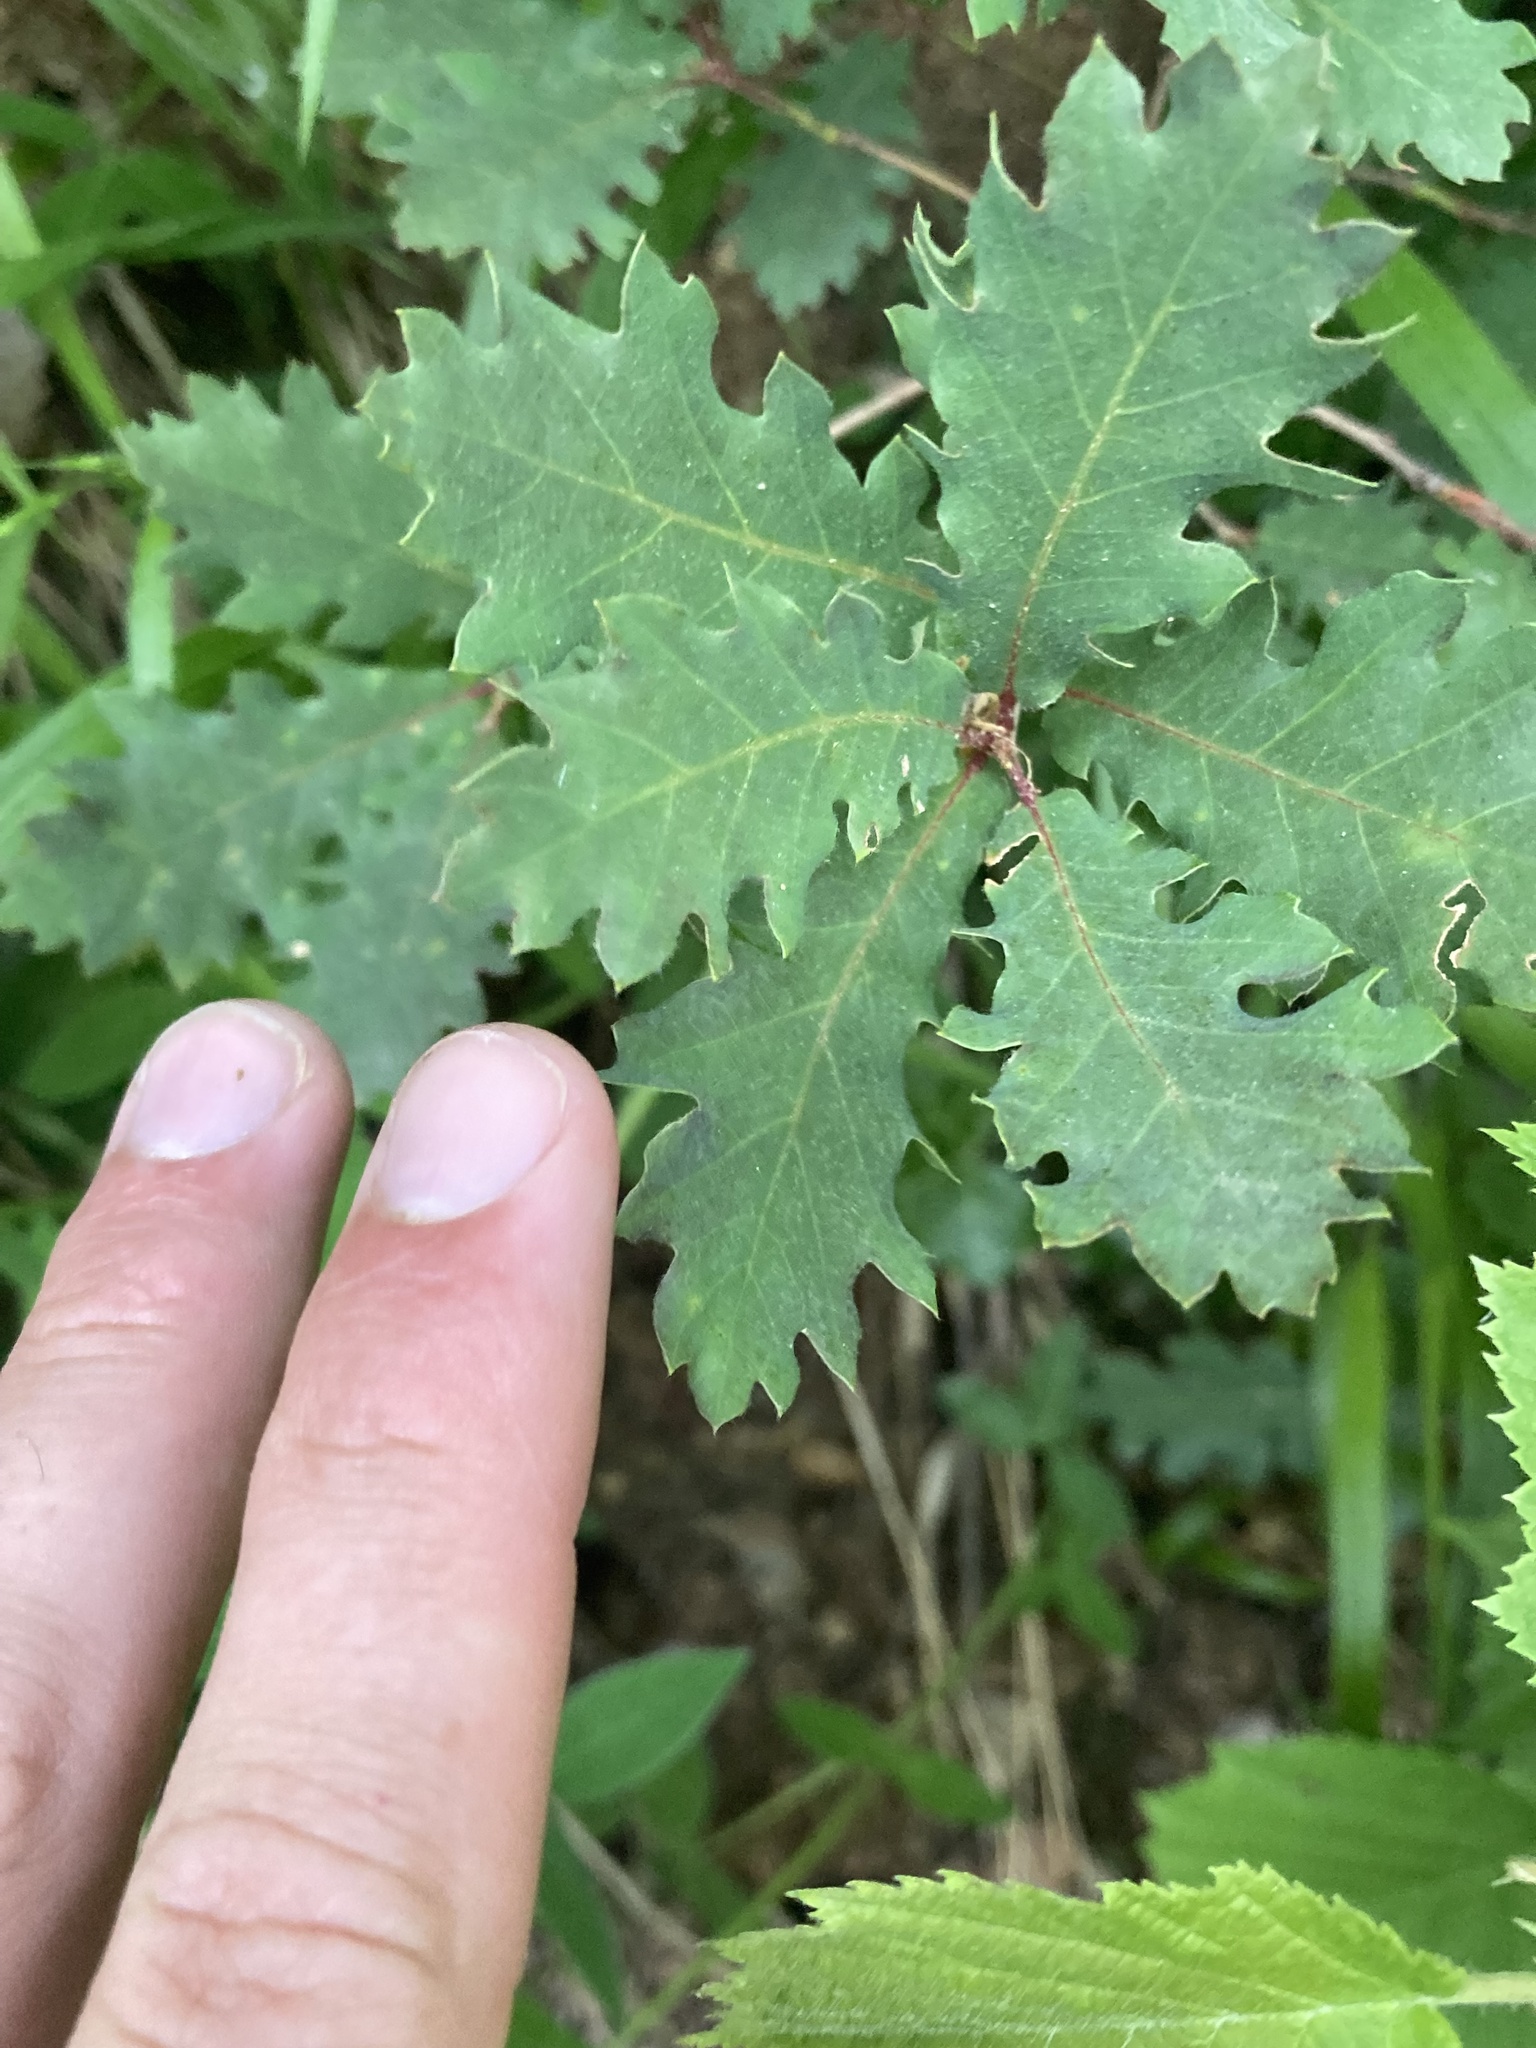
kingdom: Plantae
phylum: Tracheophyta
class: Magnoliopsida
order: Fagales
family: Fagaceae
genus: Quercus
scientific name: Quercus pubescens
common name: Downy oak
